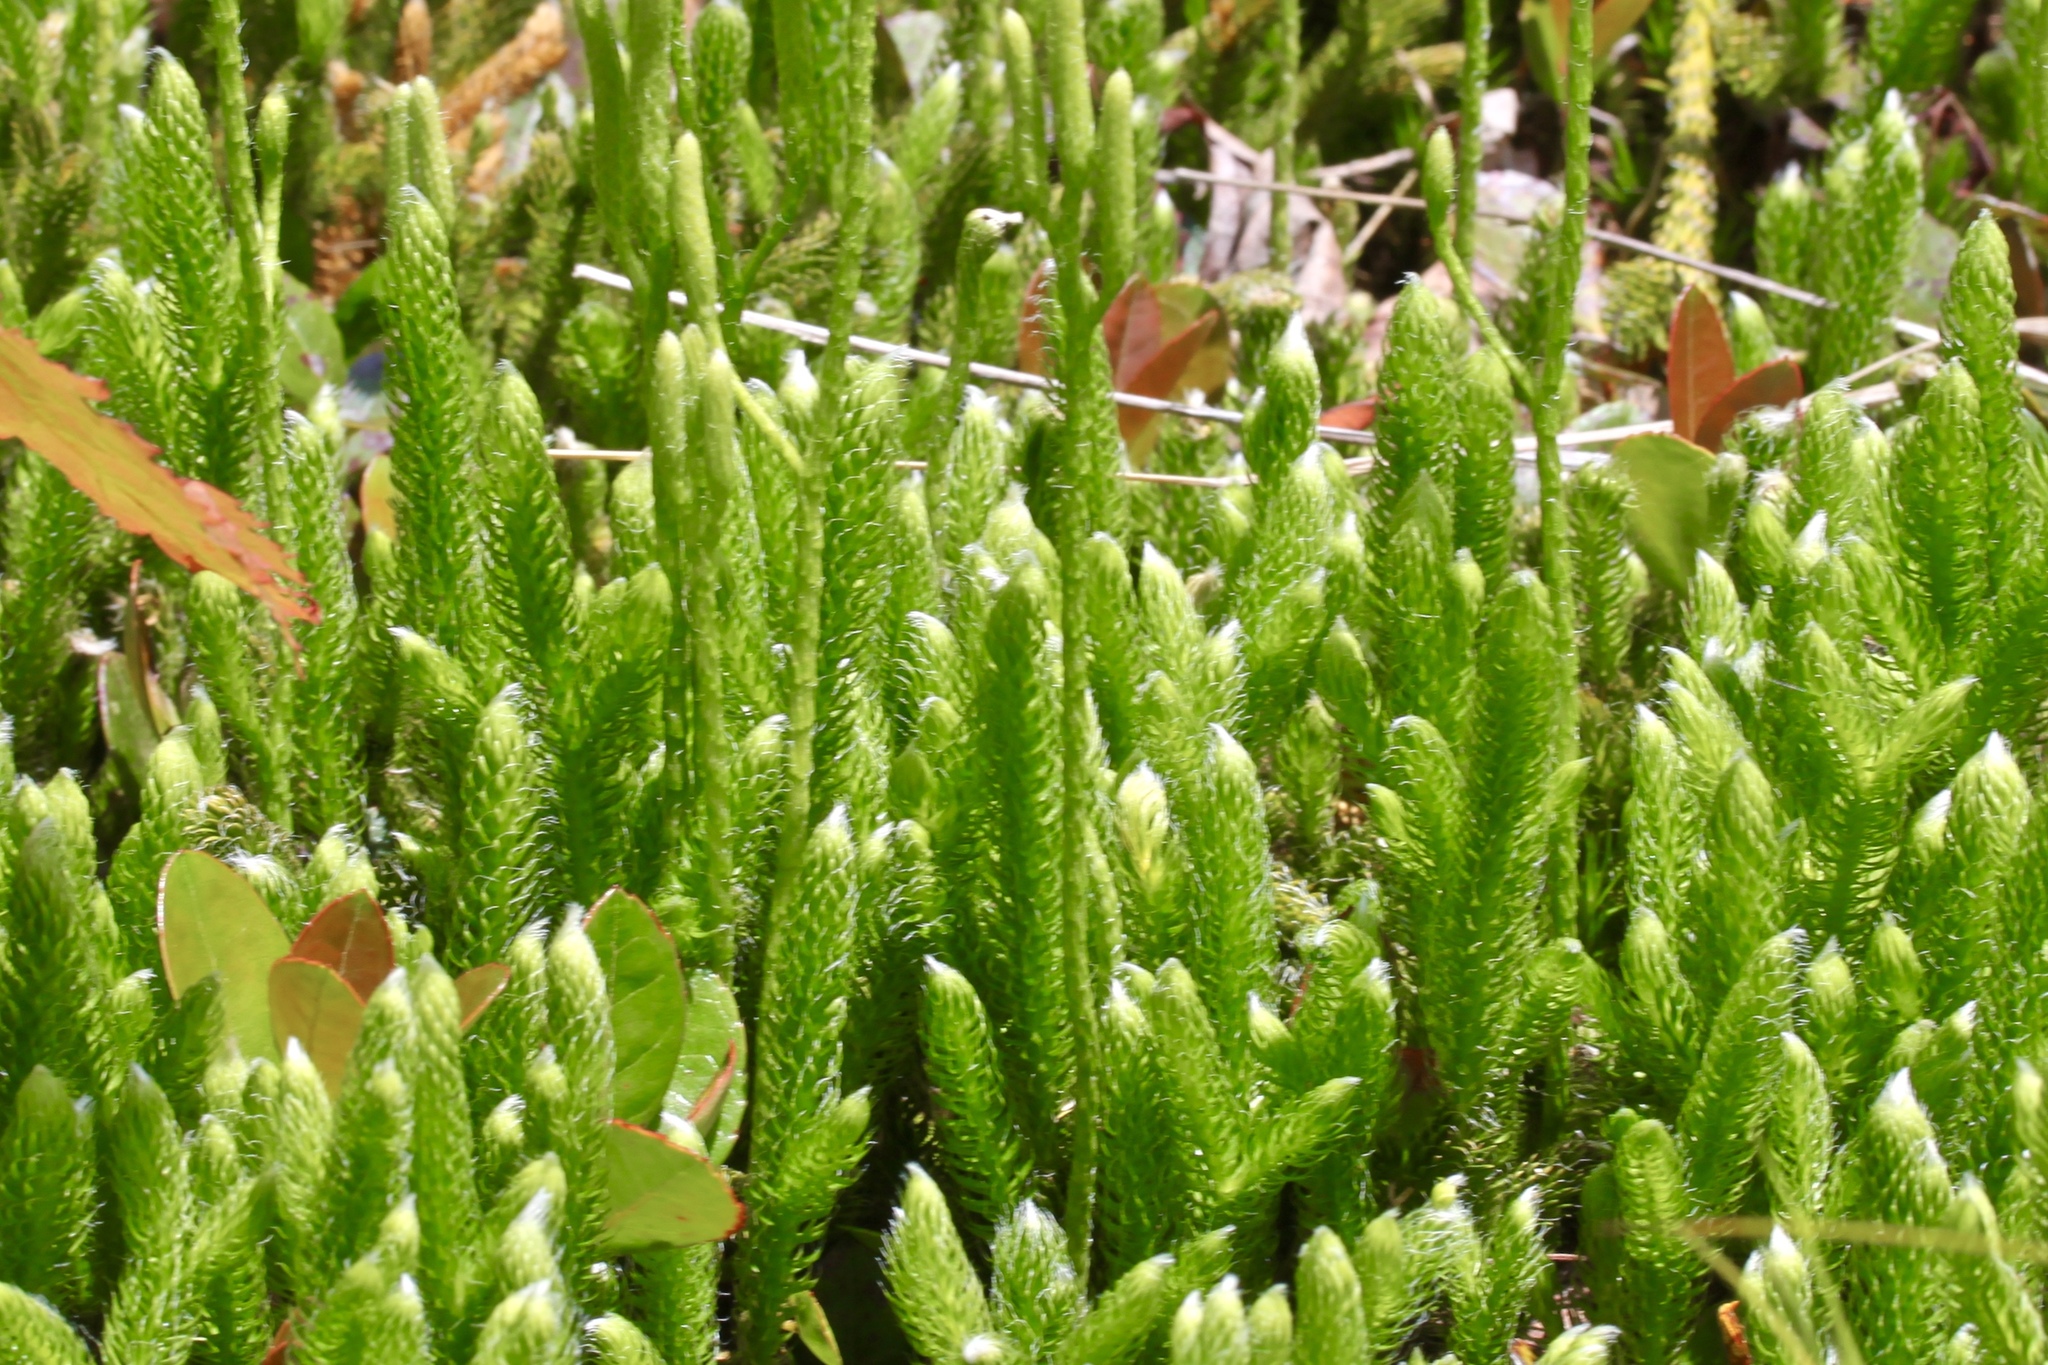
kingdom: Plantae
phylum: Tracheophyta
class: Lycopodiopsida
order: Lycopodiales
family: Lycopodiaceae
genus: Lycopodium
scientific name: Lycopodium clavatum
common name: Stag's-horn clubmoss
